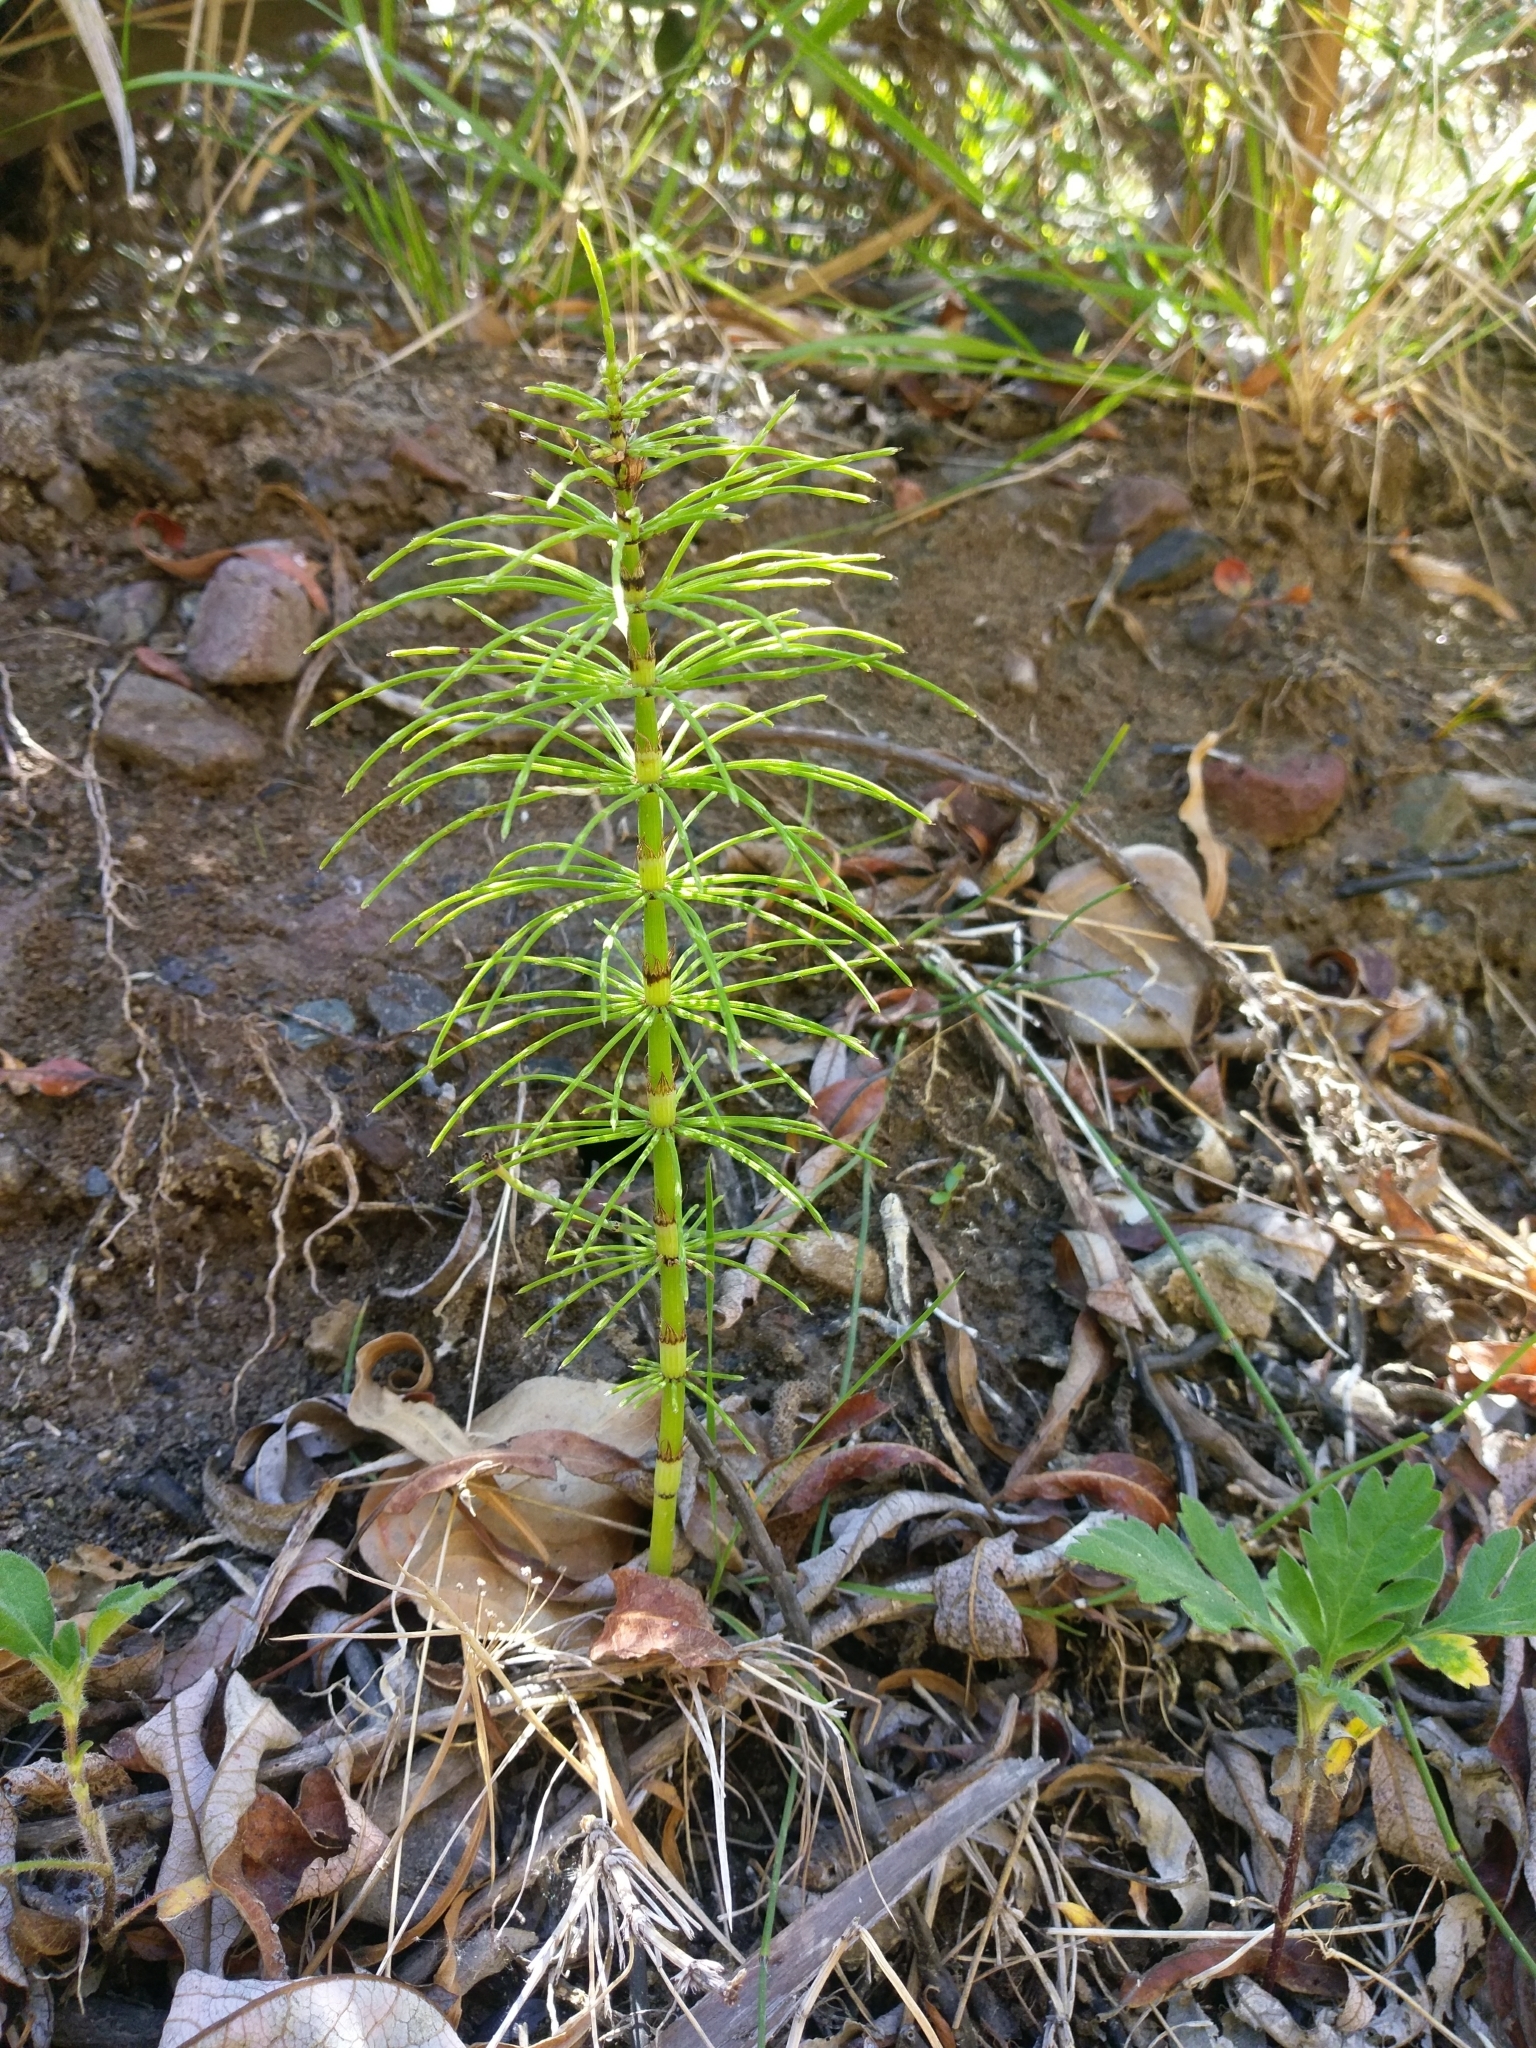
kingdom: Plantae
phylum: Tracheophyta
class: Polypodiopsida
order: Equisetales
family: Equisetaceae
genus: Equisetum
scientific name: Equisetum telmateia
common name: Great horsetail
